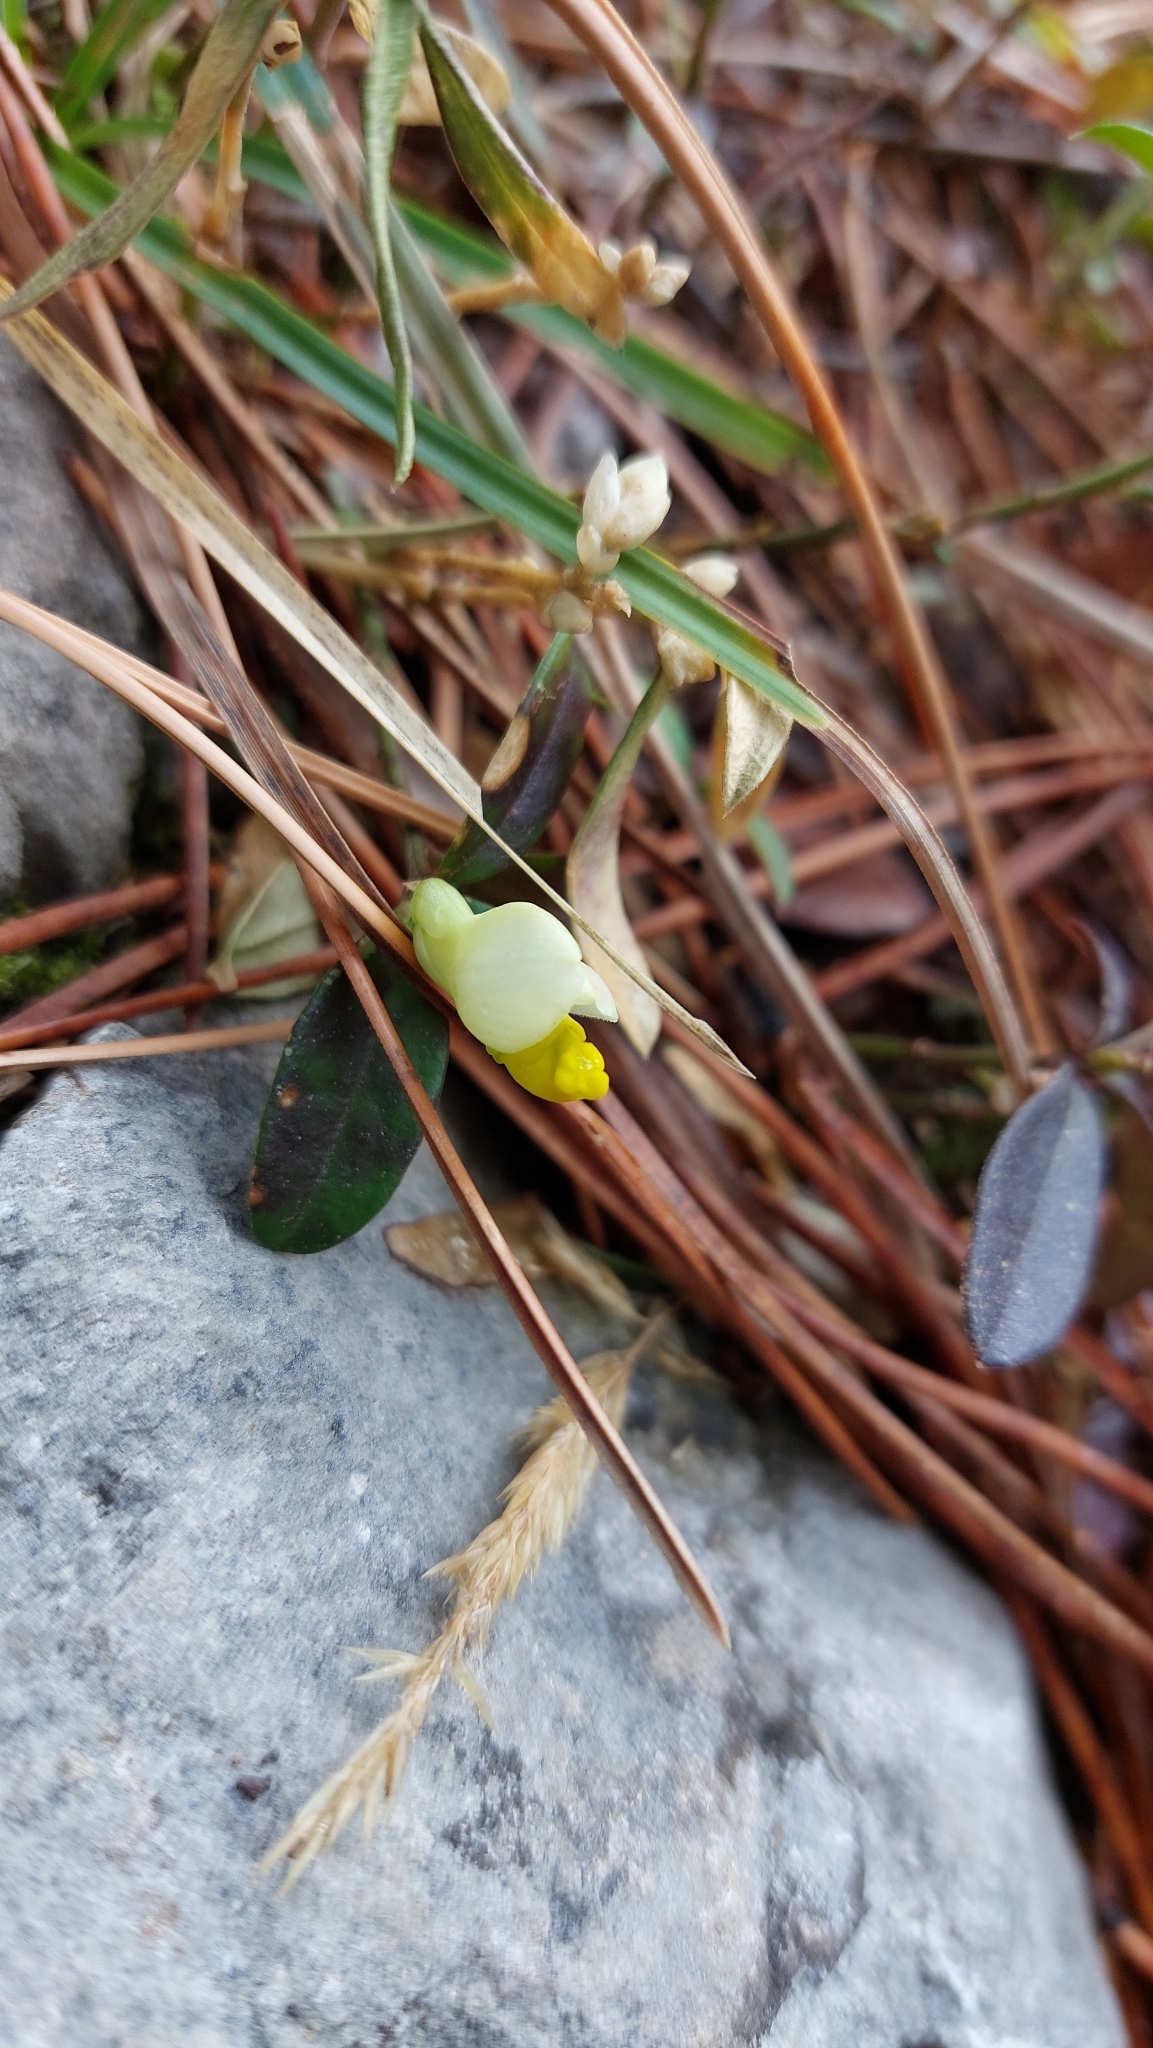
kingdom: Plantae
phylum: Tracheophyta
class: Magnoliopsida
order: Fabales
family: Polygalaceae
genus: Polygaloides
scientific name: Polygaloides chamaebuxus
